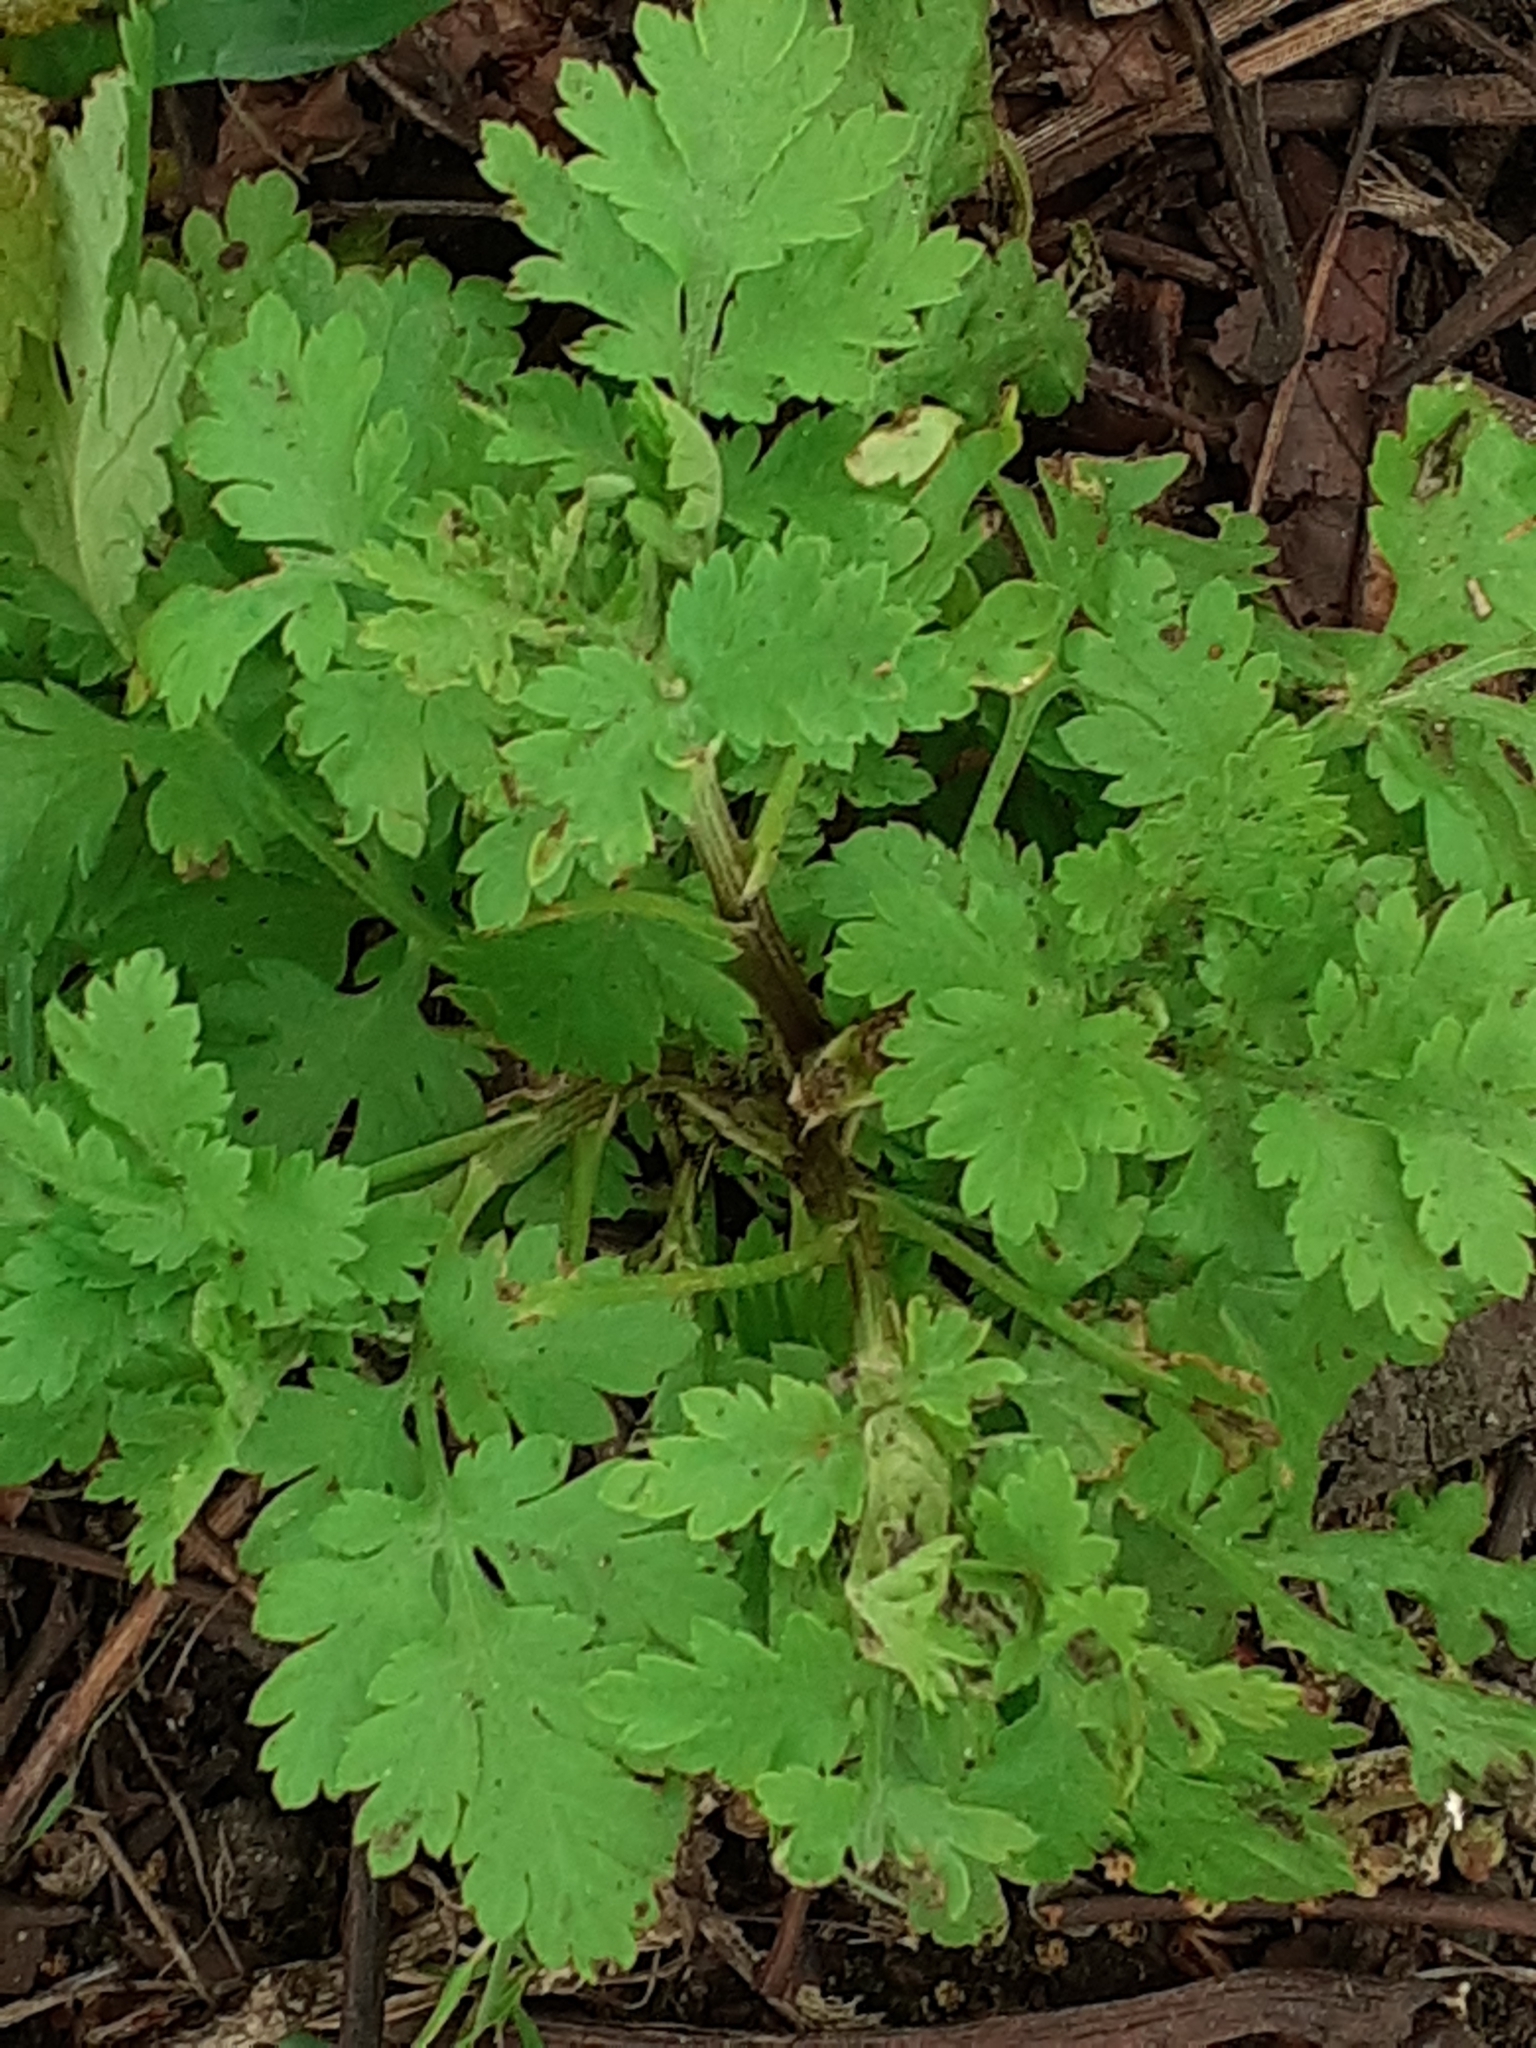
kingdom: Plantae
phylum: Tracheophyta
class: Magnoliopsida
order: Asterales
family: Asteraceae
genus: Tanacetum
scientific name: Tanacetum parthenium
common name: Feverfew
